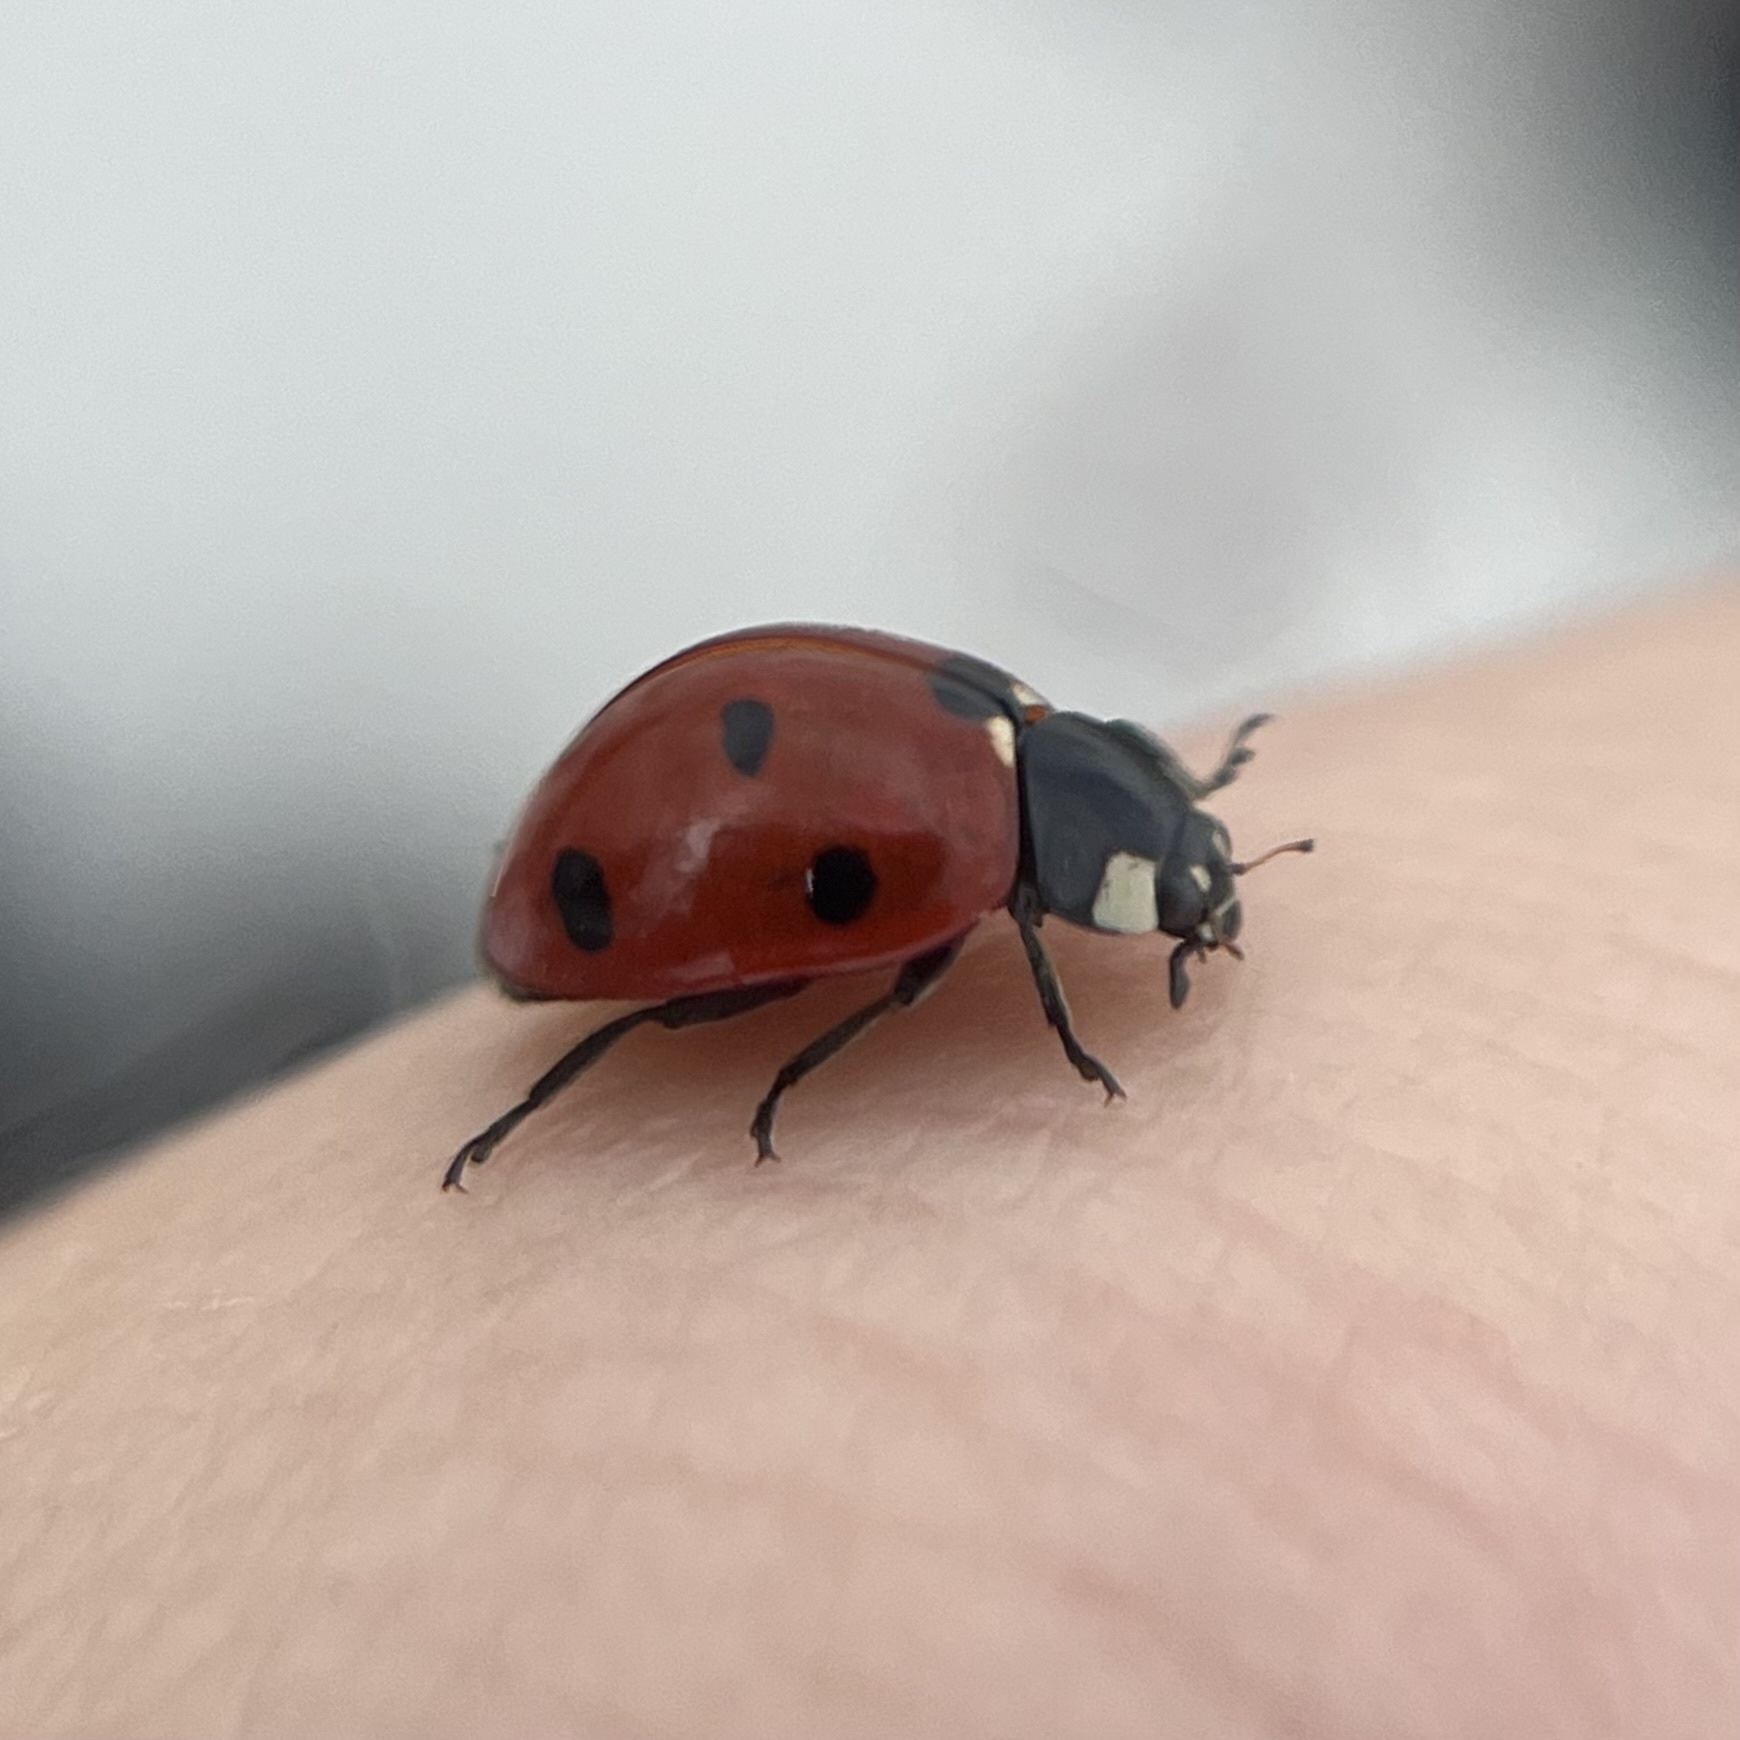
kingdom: Animalia
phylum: Arthropoda
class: Insecta
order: Coleoptera
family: Coccinellidae
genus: Coccinella
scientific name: Coccinella septempunctata
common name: Sevenspotted lady beetle
